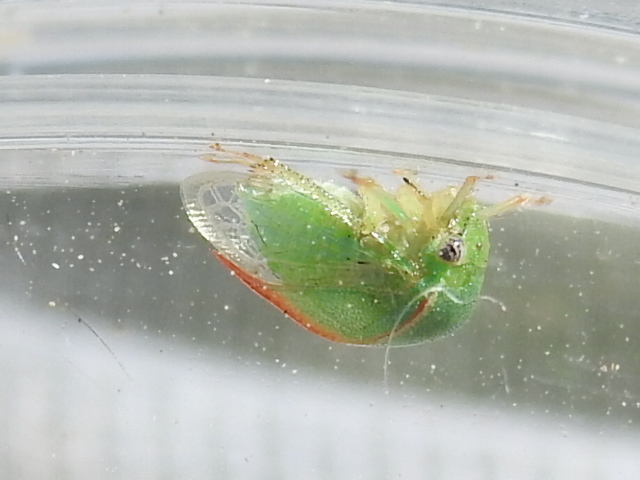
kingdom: Animalia
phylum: Arthropoda
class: Insecta
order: Hemiptera
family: Membracidae
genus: Spissistilus
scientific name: Spissistilus festina
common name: Membracid bug
